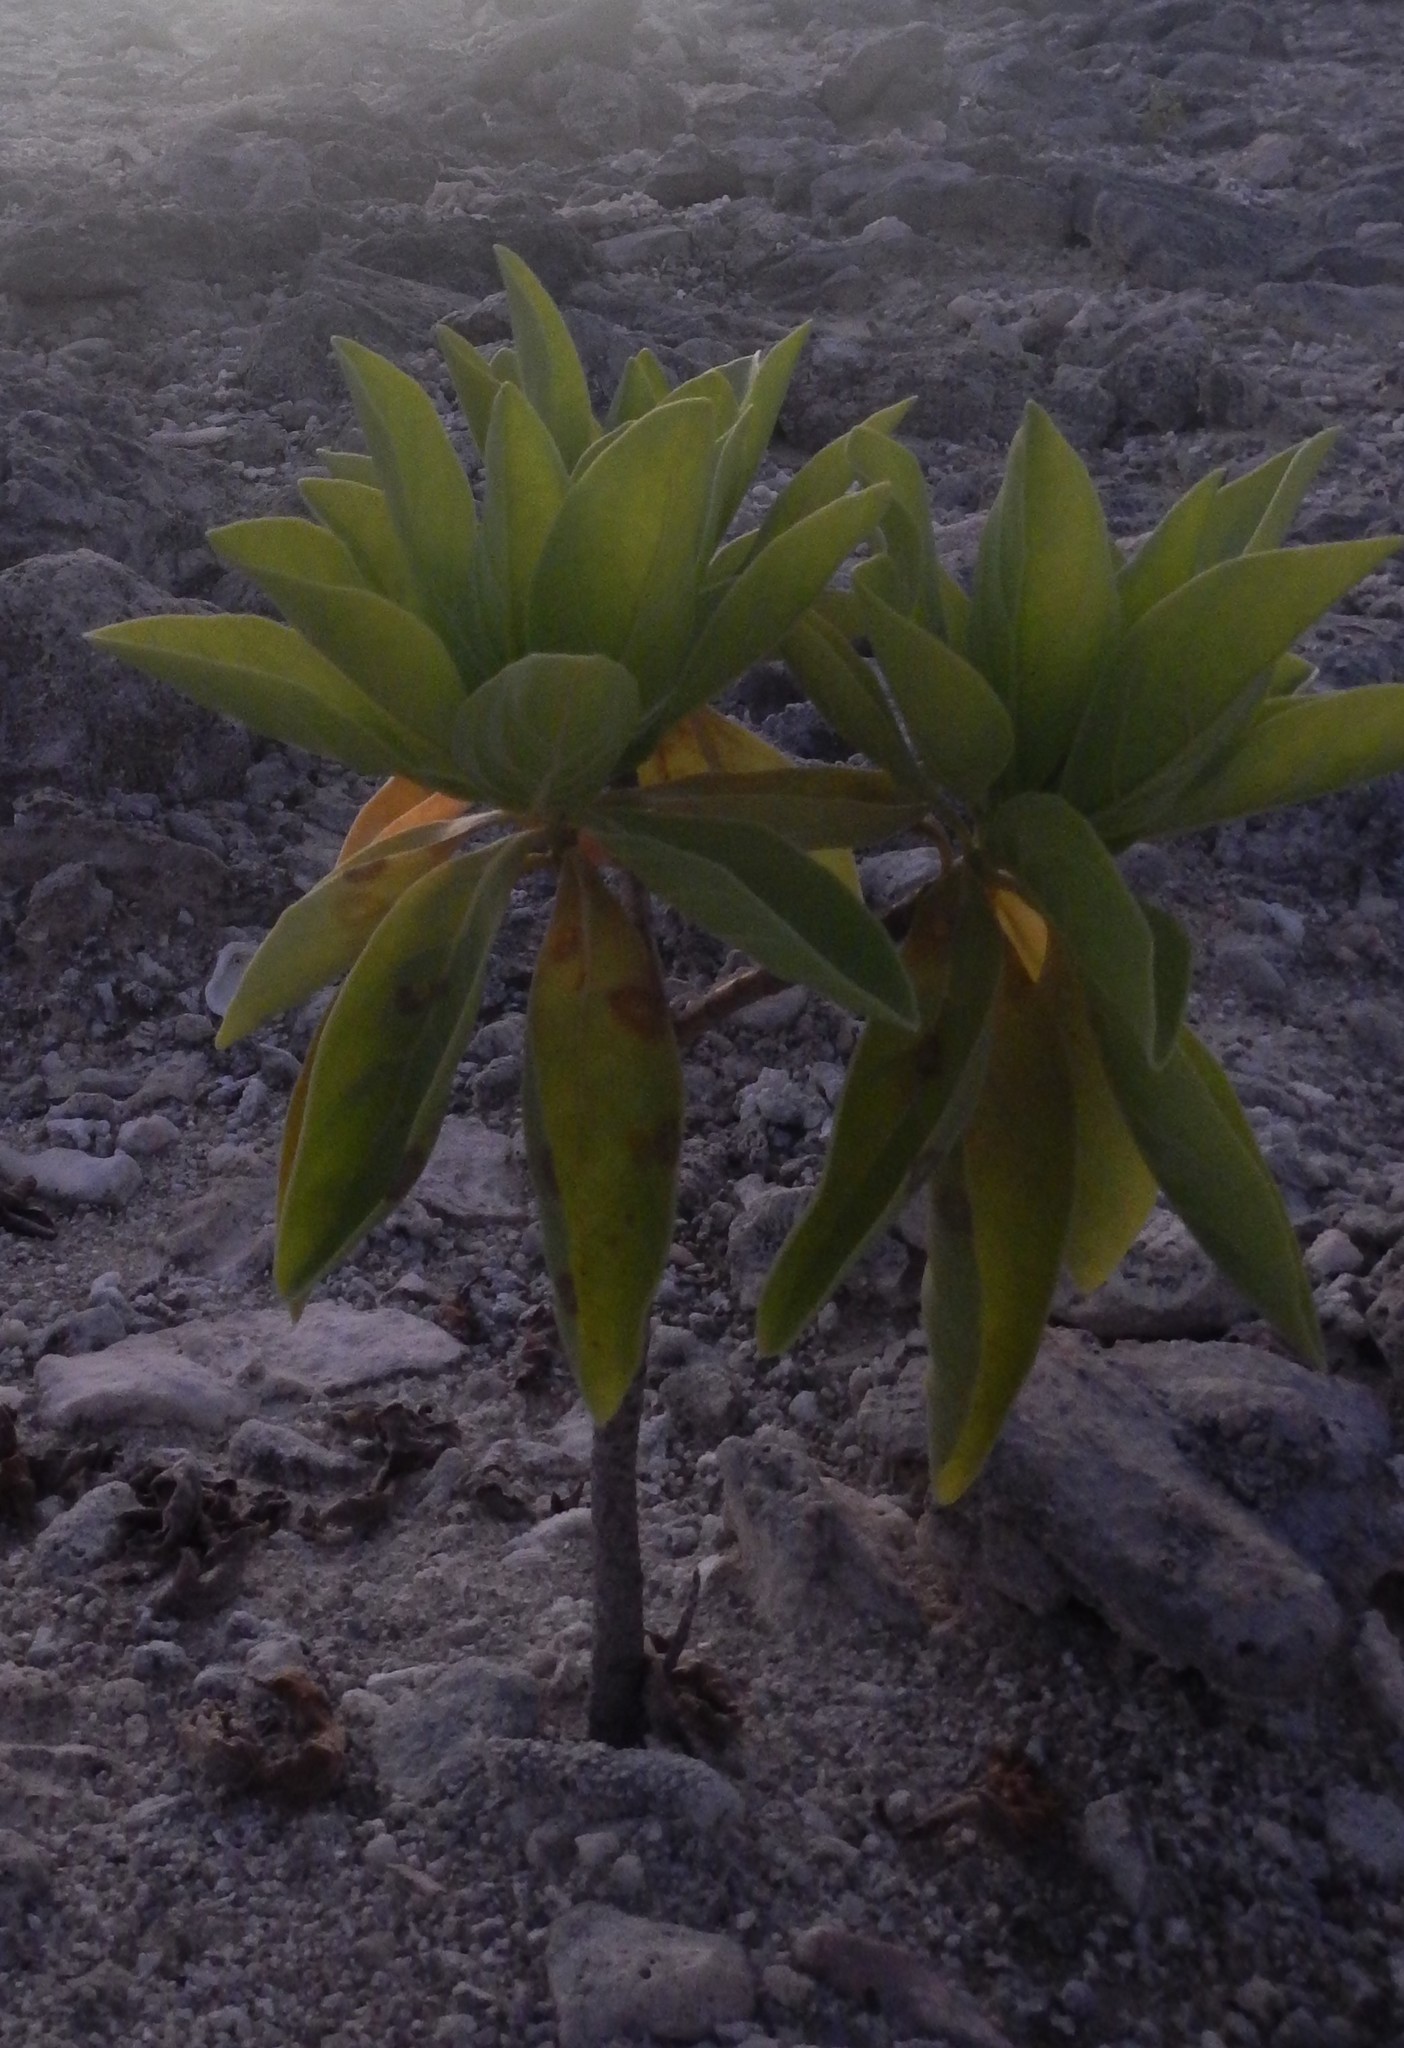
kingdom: Plantae
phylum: Tracheophyta
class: Magnoliopsida
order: Boraginales
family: Heliotropiaceae
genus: Heliotropium
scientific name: Heliotropium velutinum
